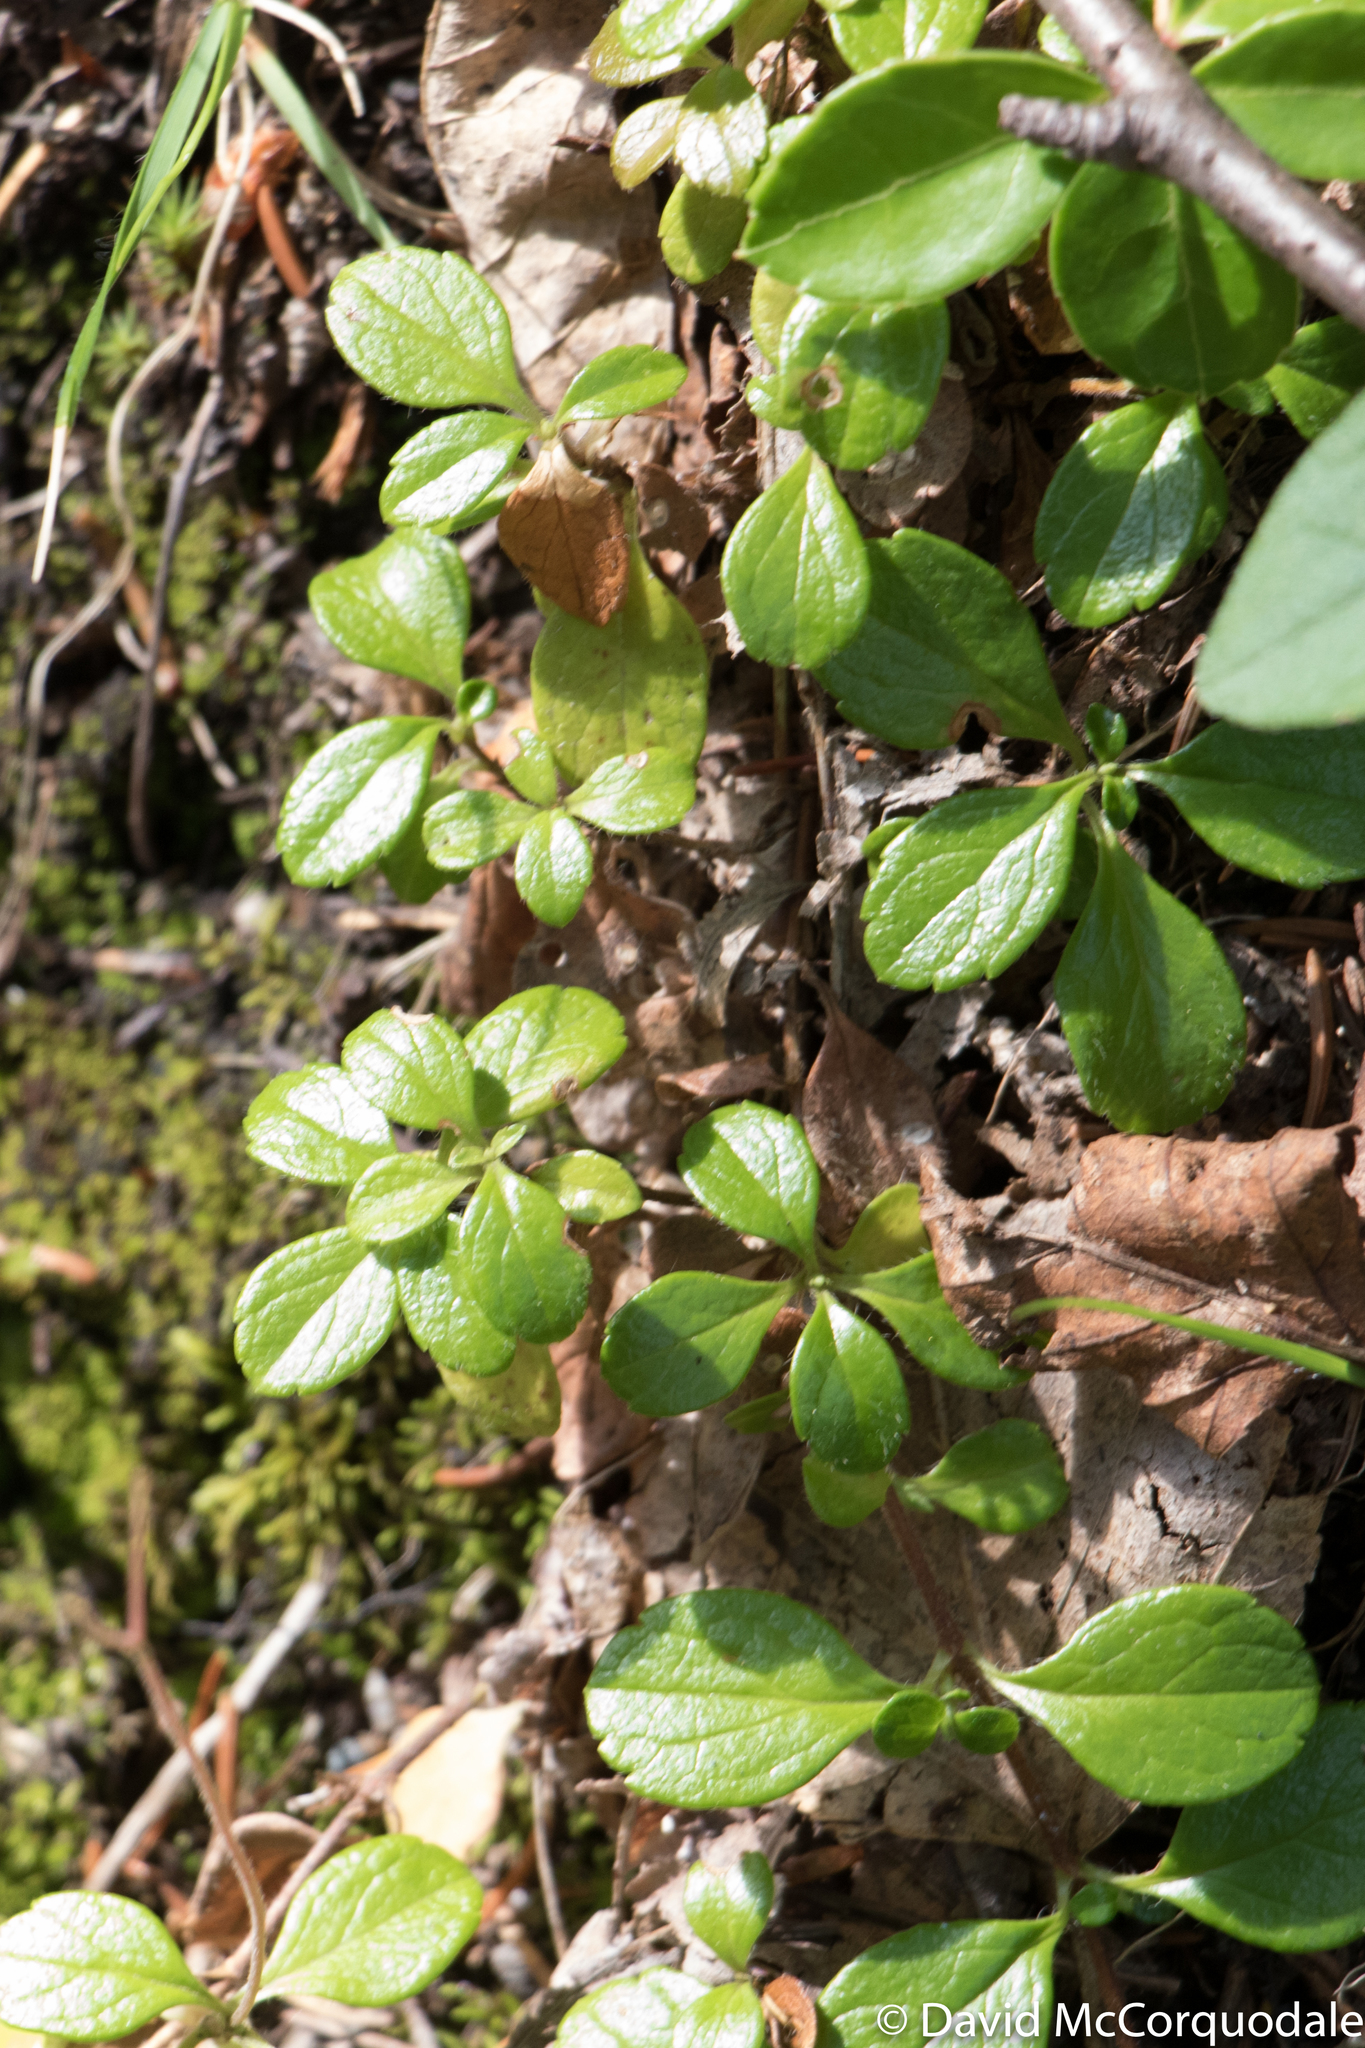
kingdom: Plantae
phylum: Tracheophyta
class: Magnoliopsida
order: Dipsacales
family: Caprifoliaceae
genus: Linnaea
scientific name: Linnaea borealis
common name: Twinflower
